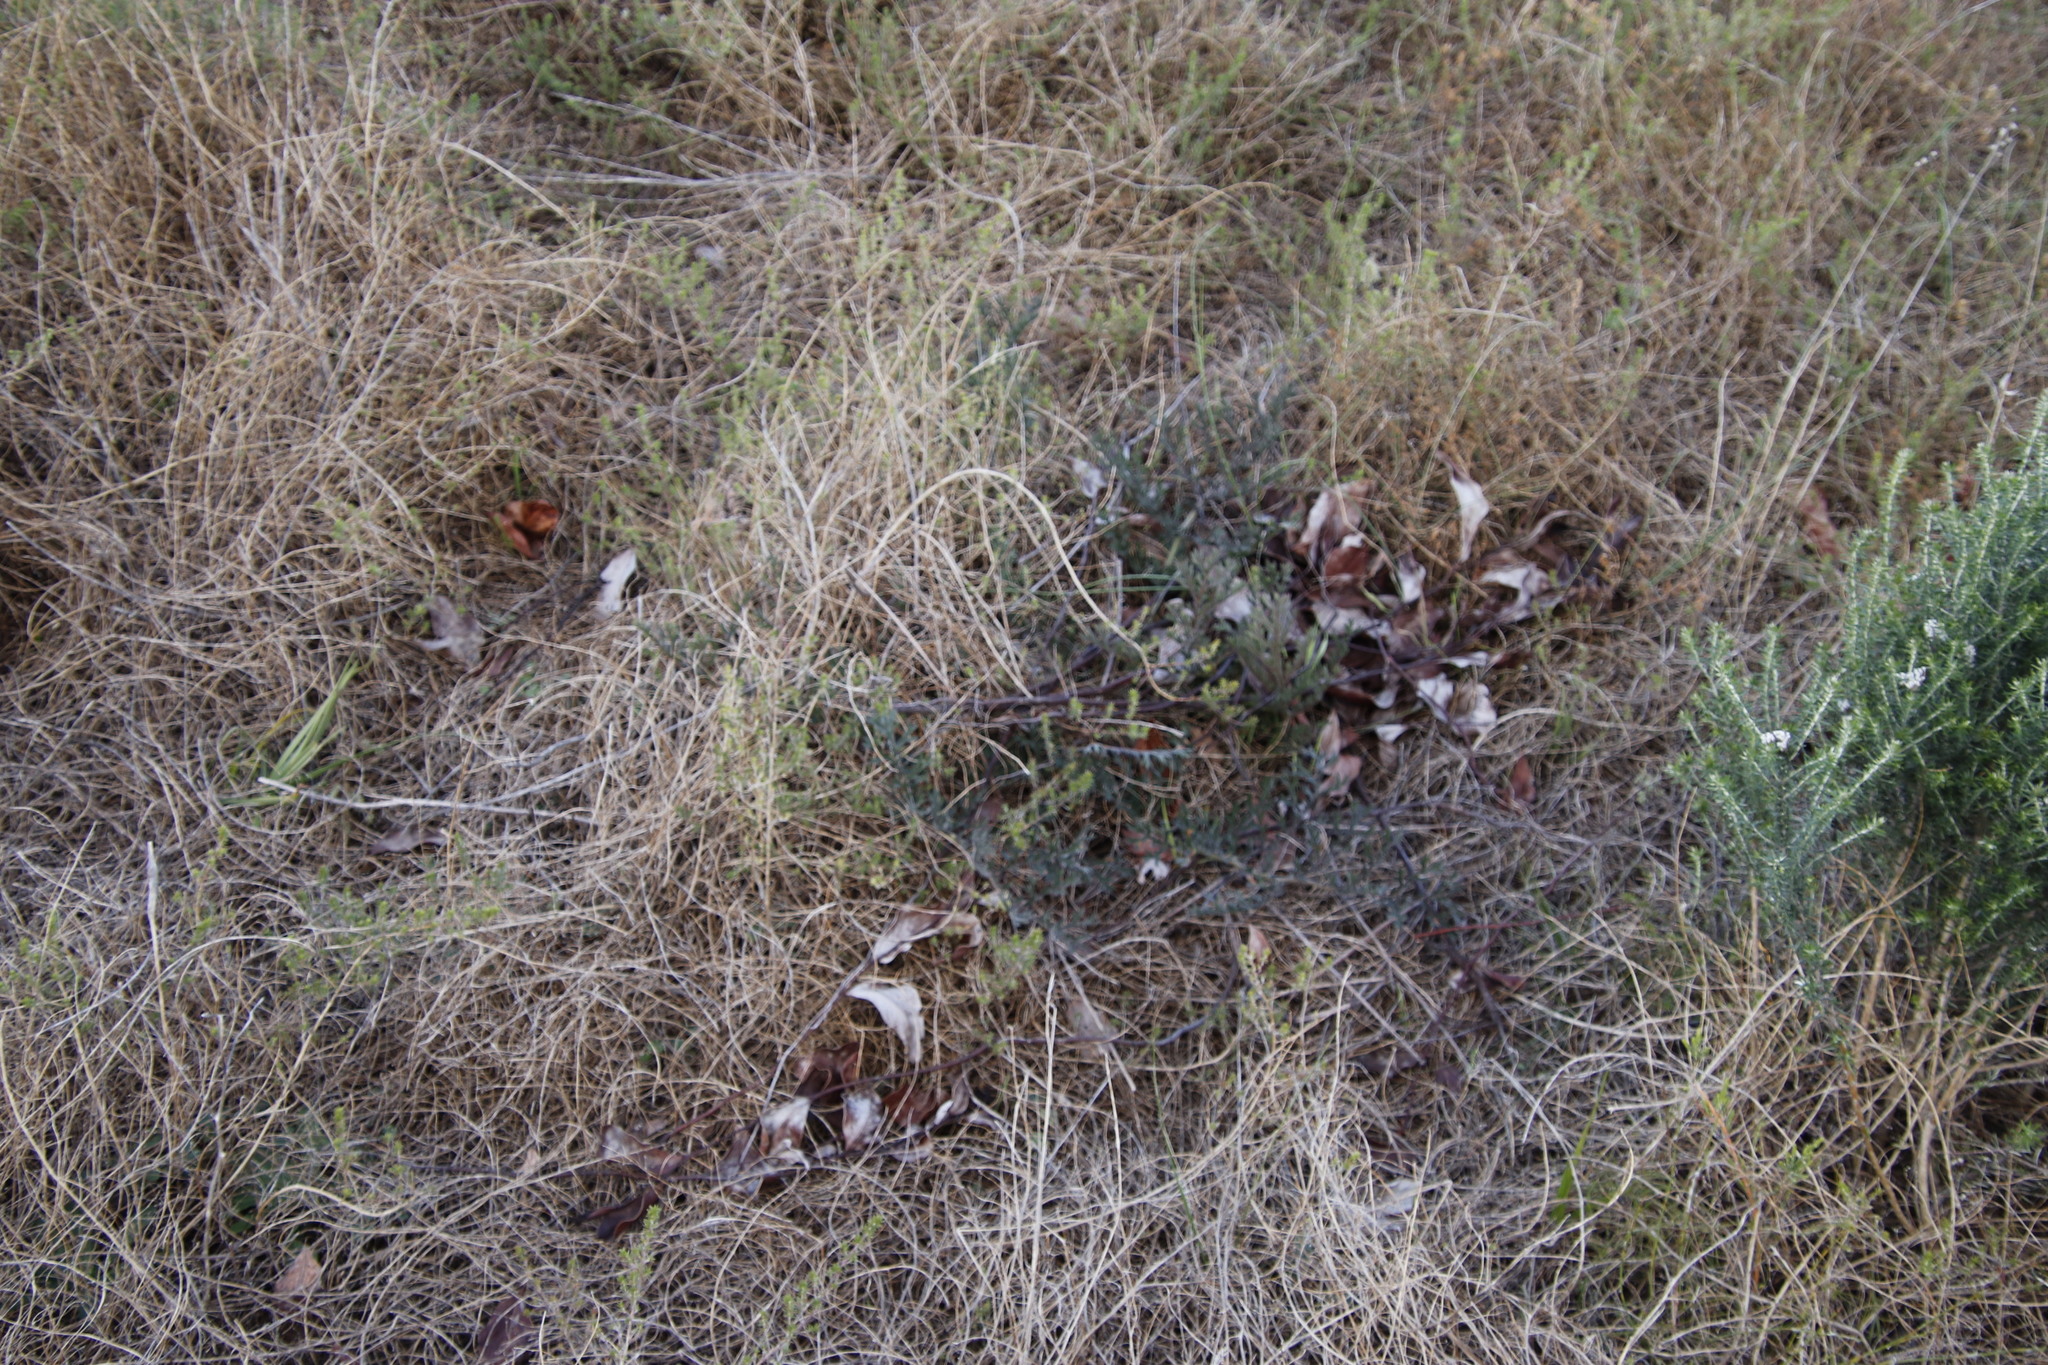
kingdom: Plantae
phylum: Tracheophyta
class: Magnoliopsida
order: Geraniales
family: Geraniaceae
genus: Pelargonium
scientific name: Pelargonium triste
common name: Night-scent pelargonium
